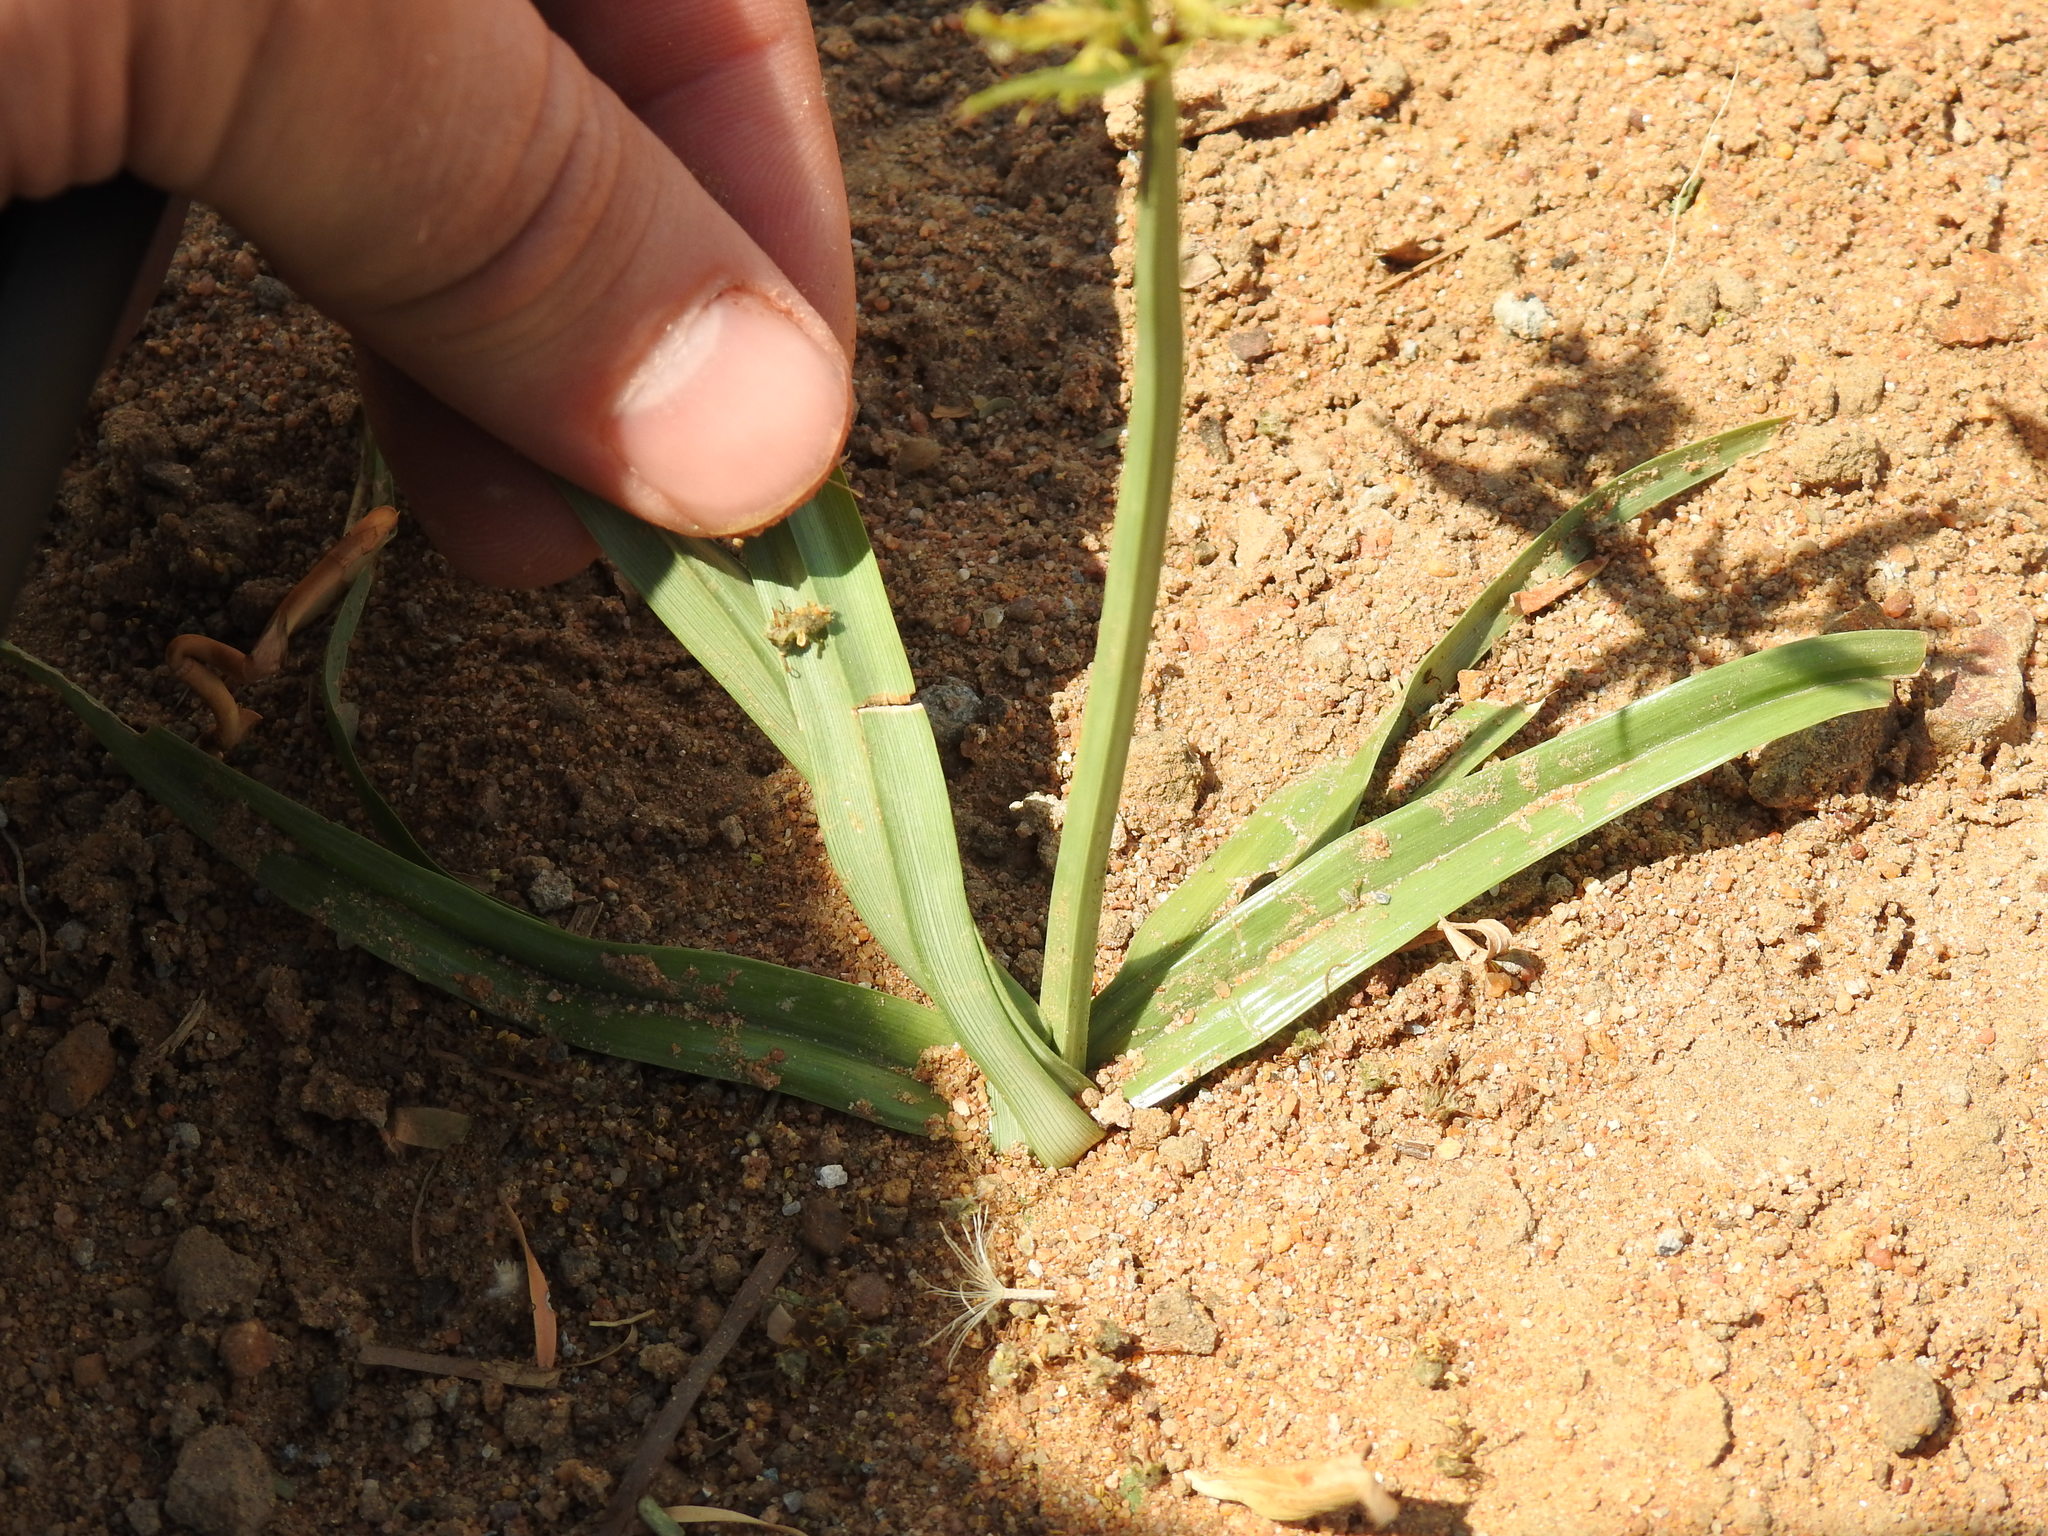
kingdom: Plantae
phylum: Tracheophyta
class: Liliopsida
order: Poales
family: Cyperaceae
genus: Cyperus
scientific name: Cyperus esculentus
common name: Yellow nutsedge
